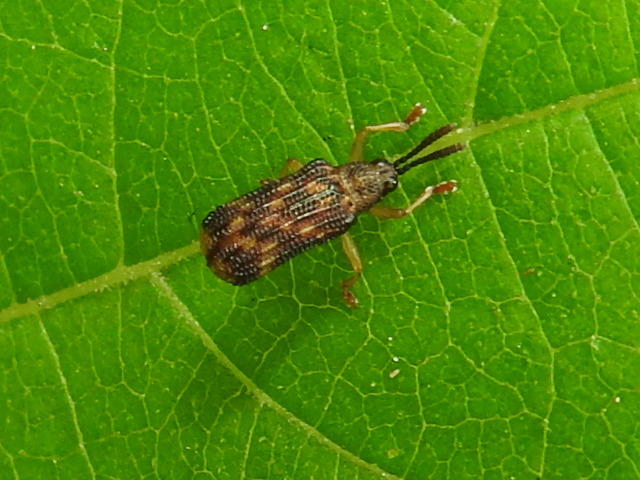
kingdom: Animalia
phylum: Arthropoda
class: Insecta
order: Coleoptera
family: Chrysomelidae
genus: Sumitrosis
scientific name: Sumitrosis inaequalis
